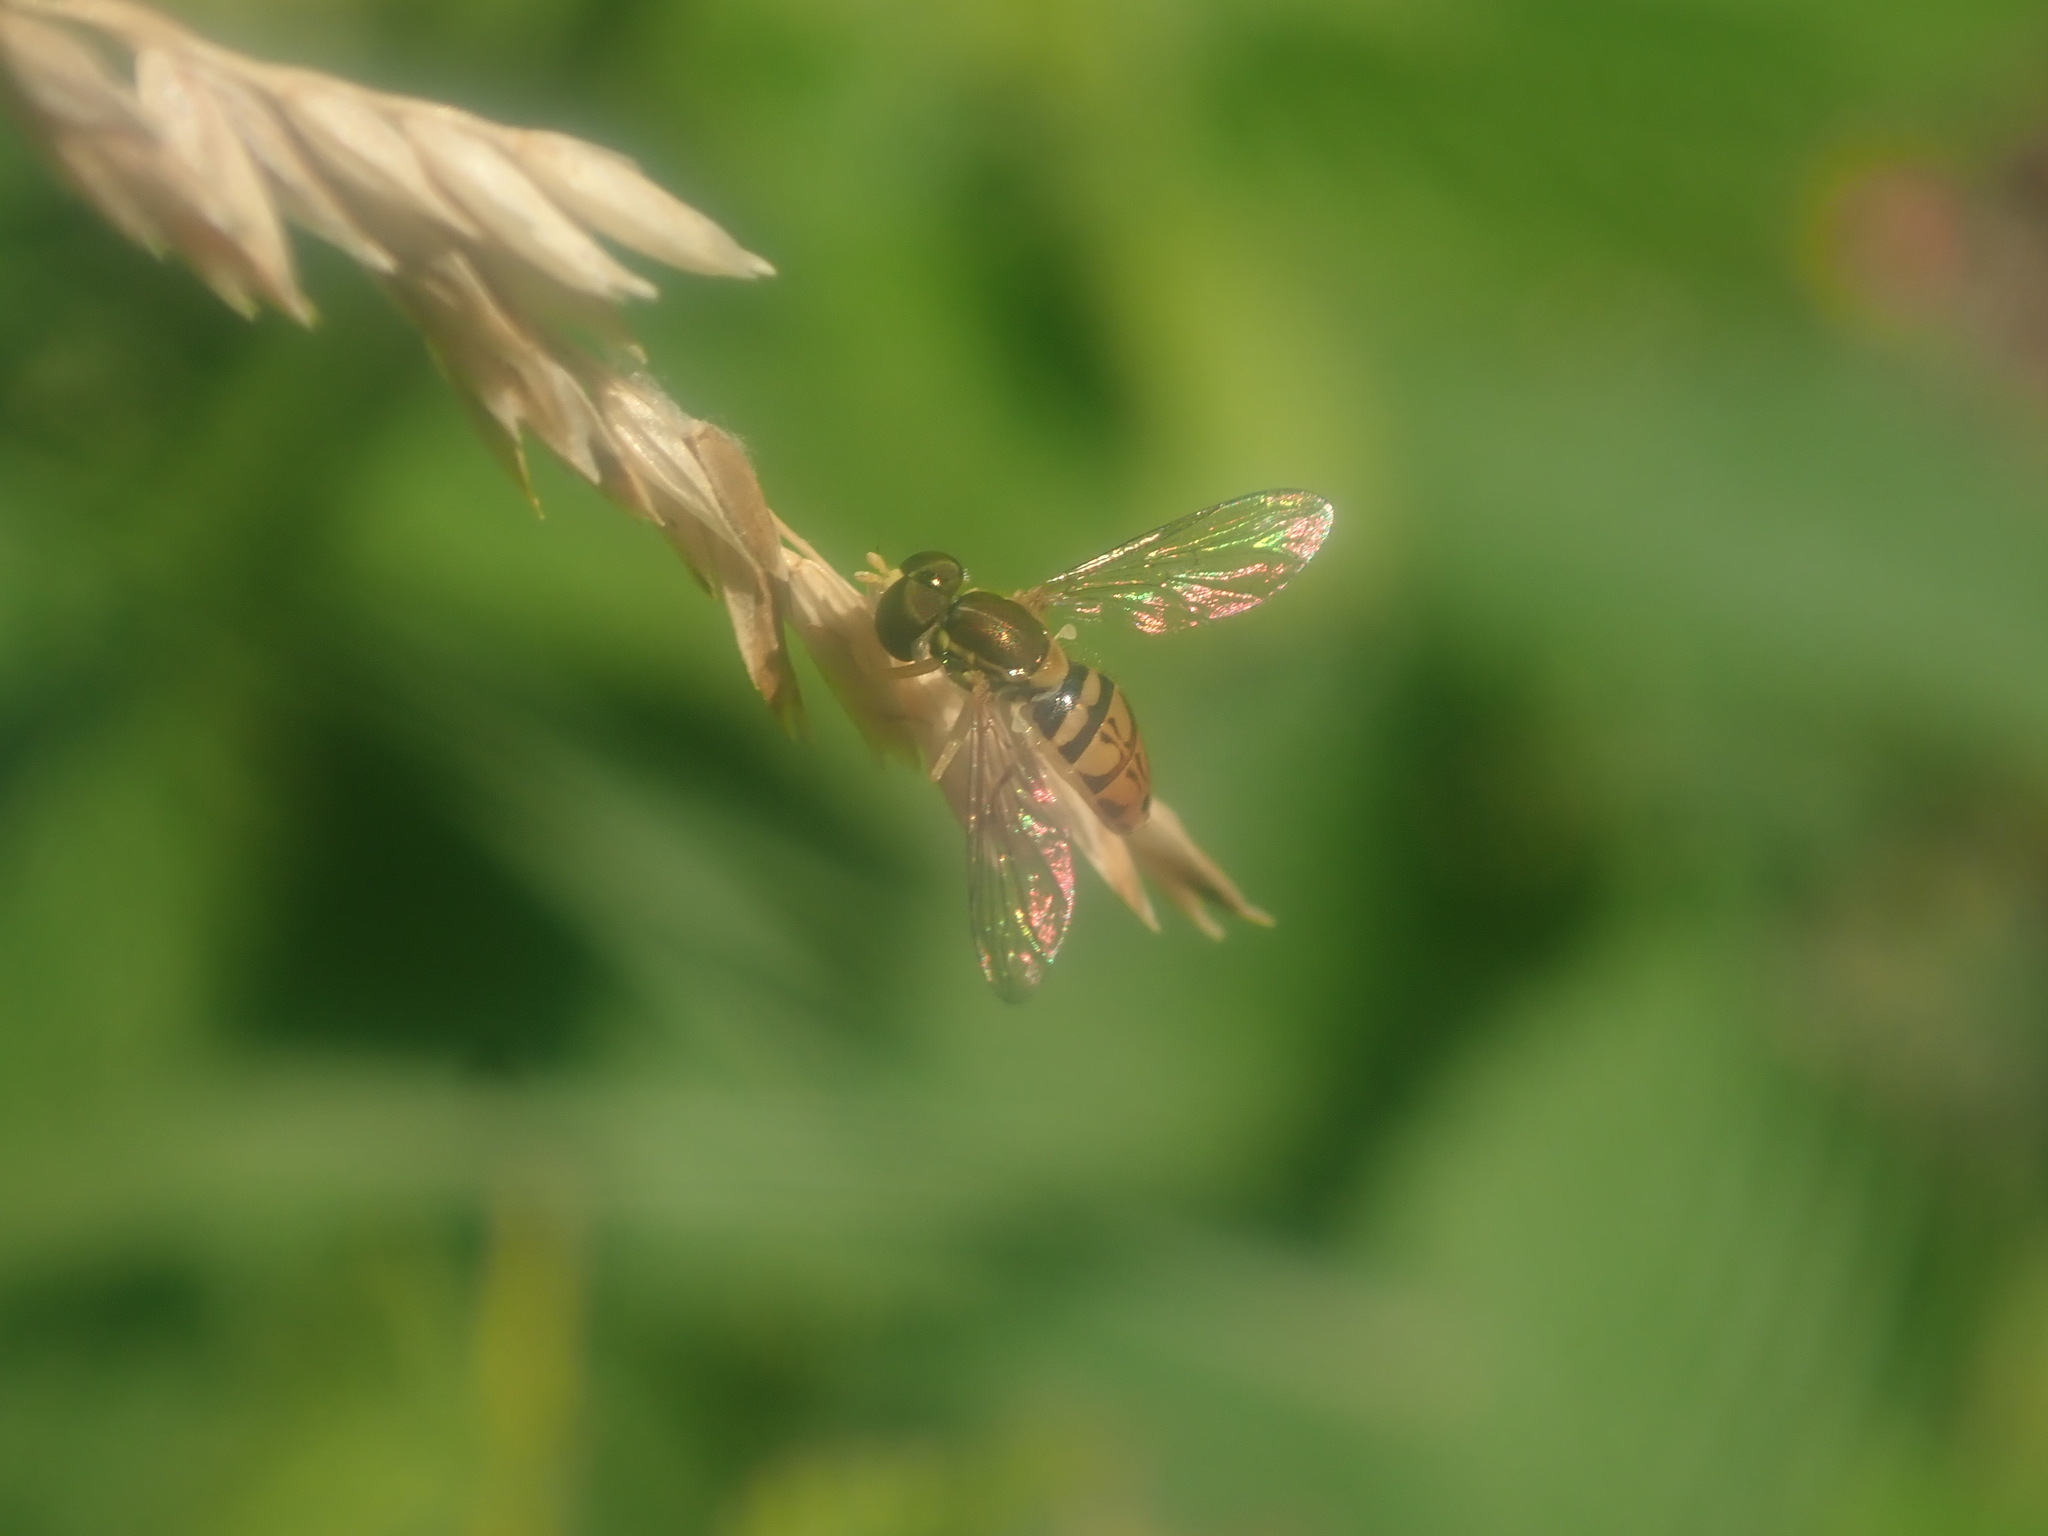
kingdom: Animalia
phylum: Arthropoda
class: Insecta
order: Diptera
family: Syrphidae
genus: Toxomerus
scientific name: Toxomerus marginatus
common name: Syrphid fly
